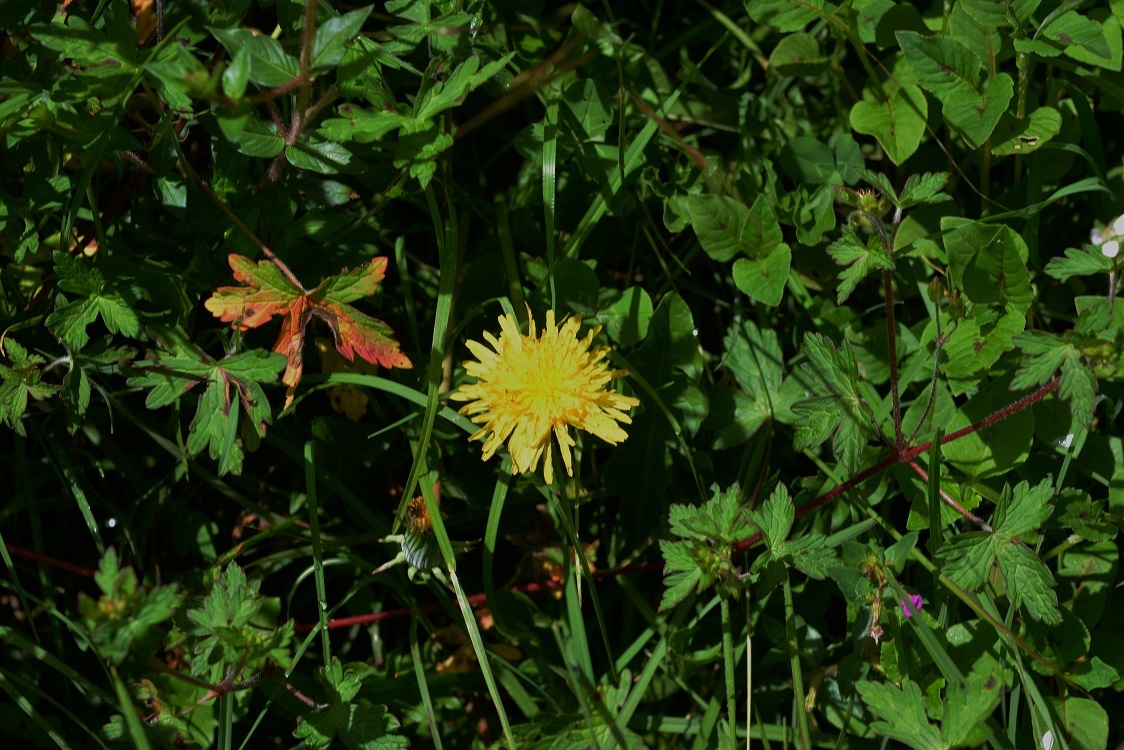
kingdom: Plantae
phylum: Tracheophyta
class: Magnoliopsida
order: Asterales
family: Asteraceae
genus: Taraxacum
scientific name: Taraxacum officinale
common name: Common dandelion
